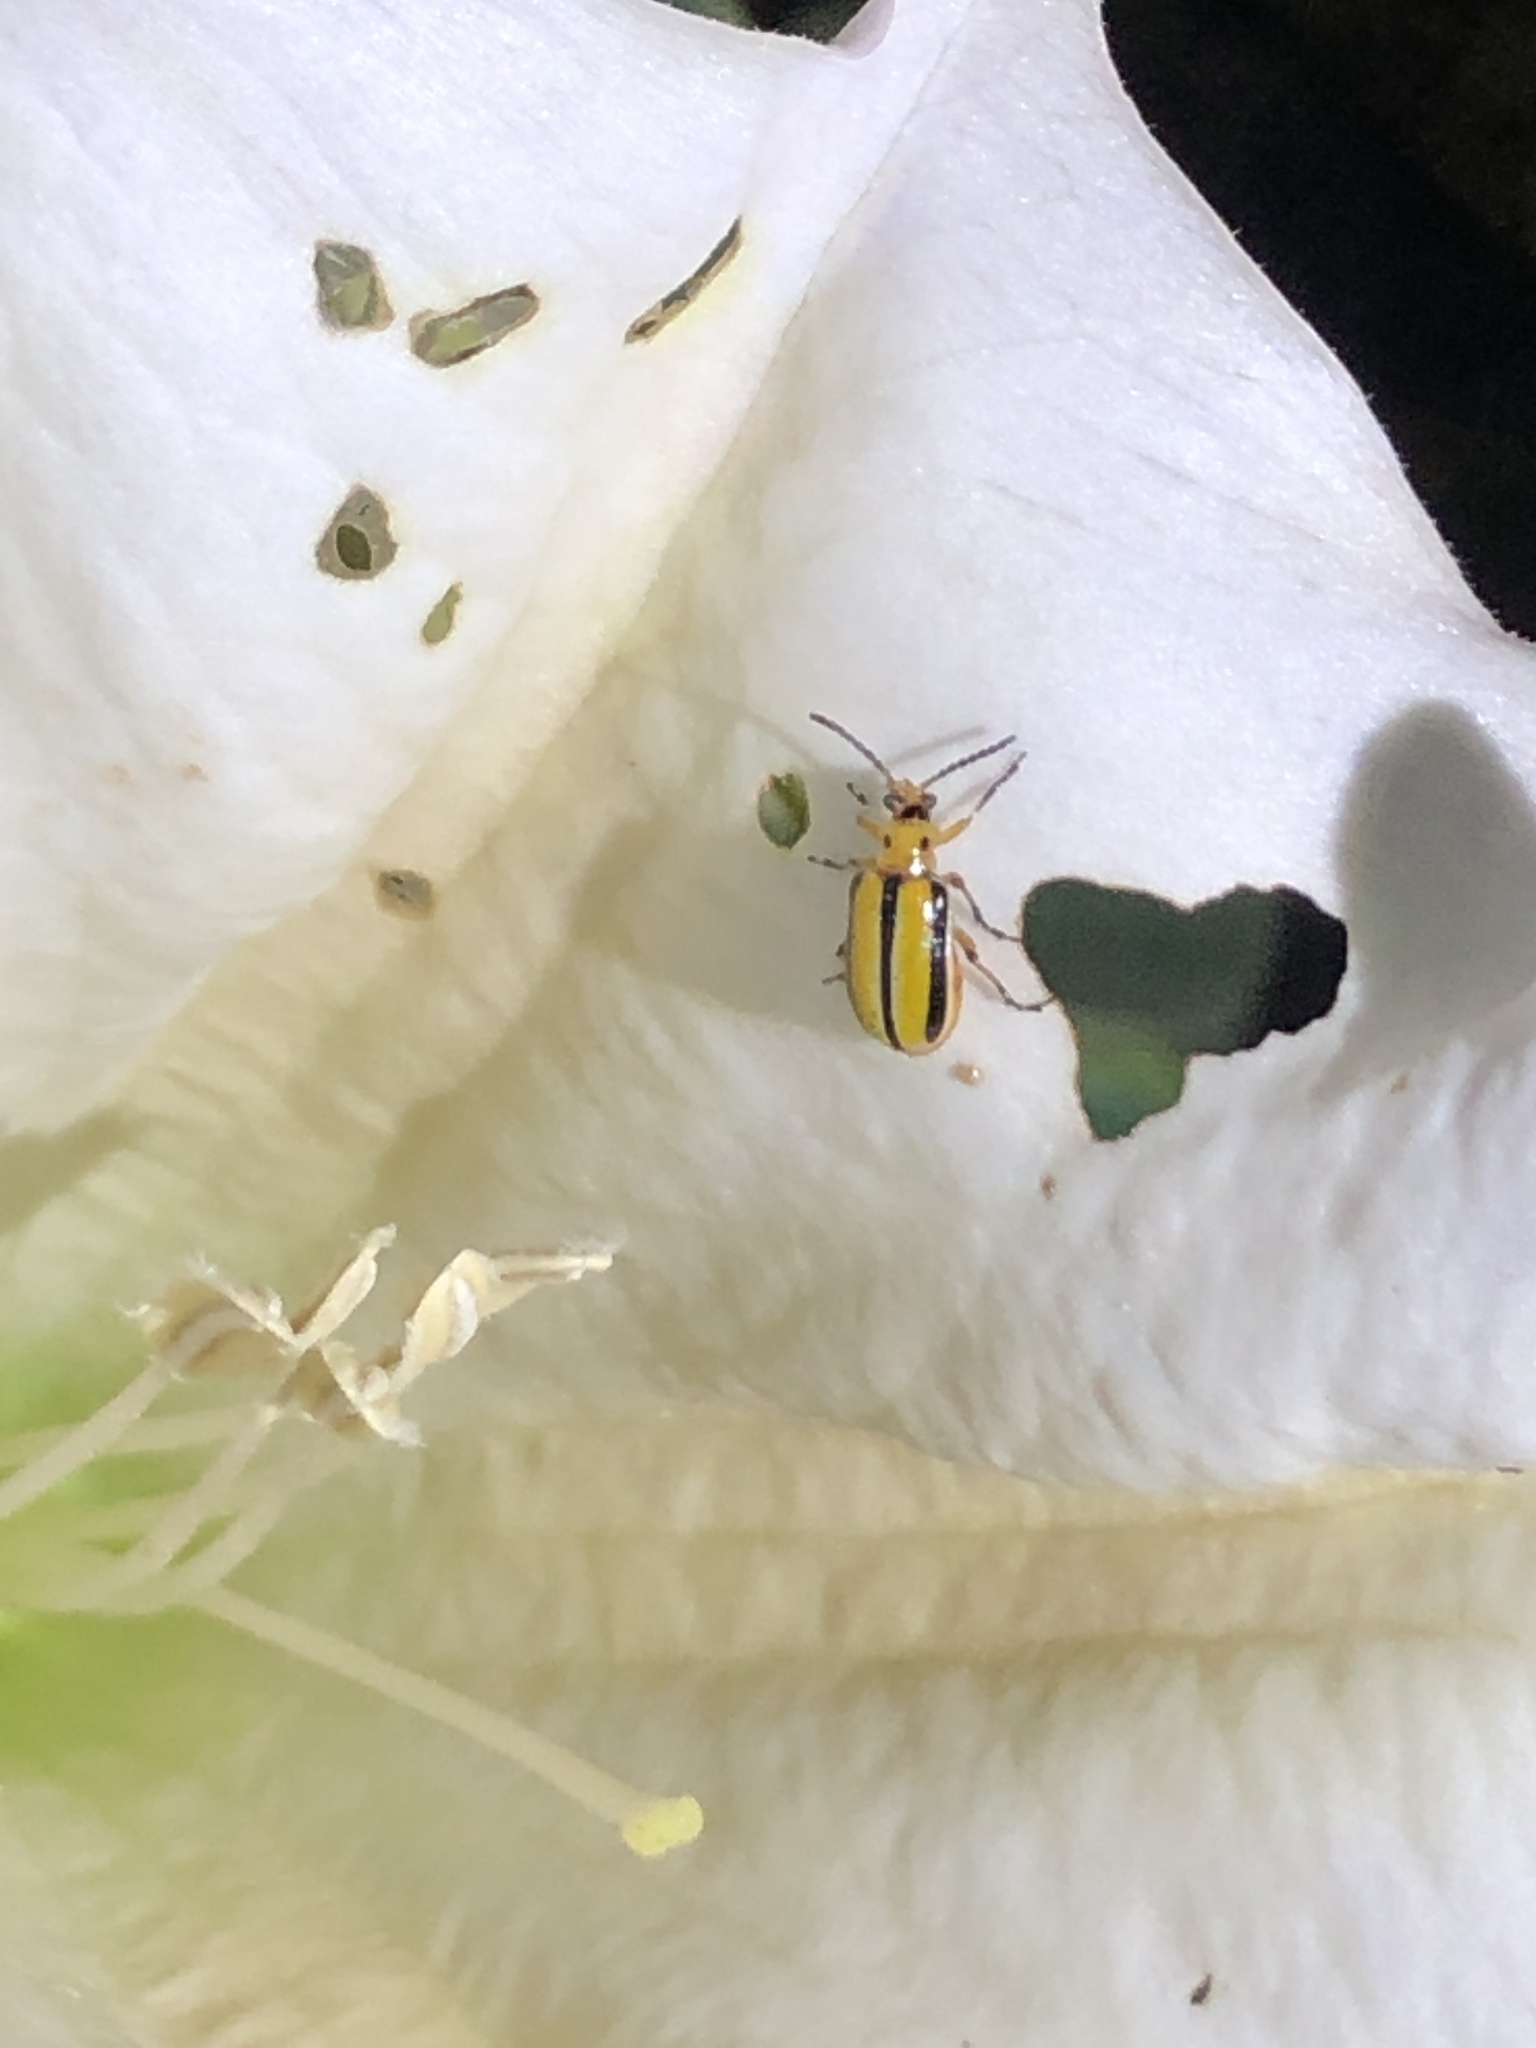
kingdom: Animalia
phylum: Arthropoda
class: Insecta
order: Coleoptera
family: Chrysomelidae
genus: Lema
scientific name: Lema daturaphila
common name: Leaf beetle
